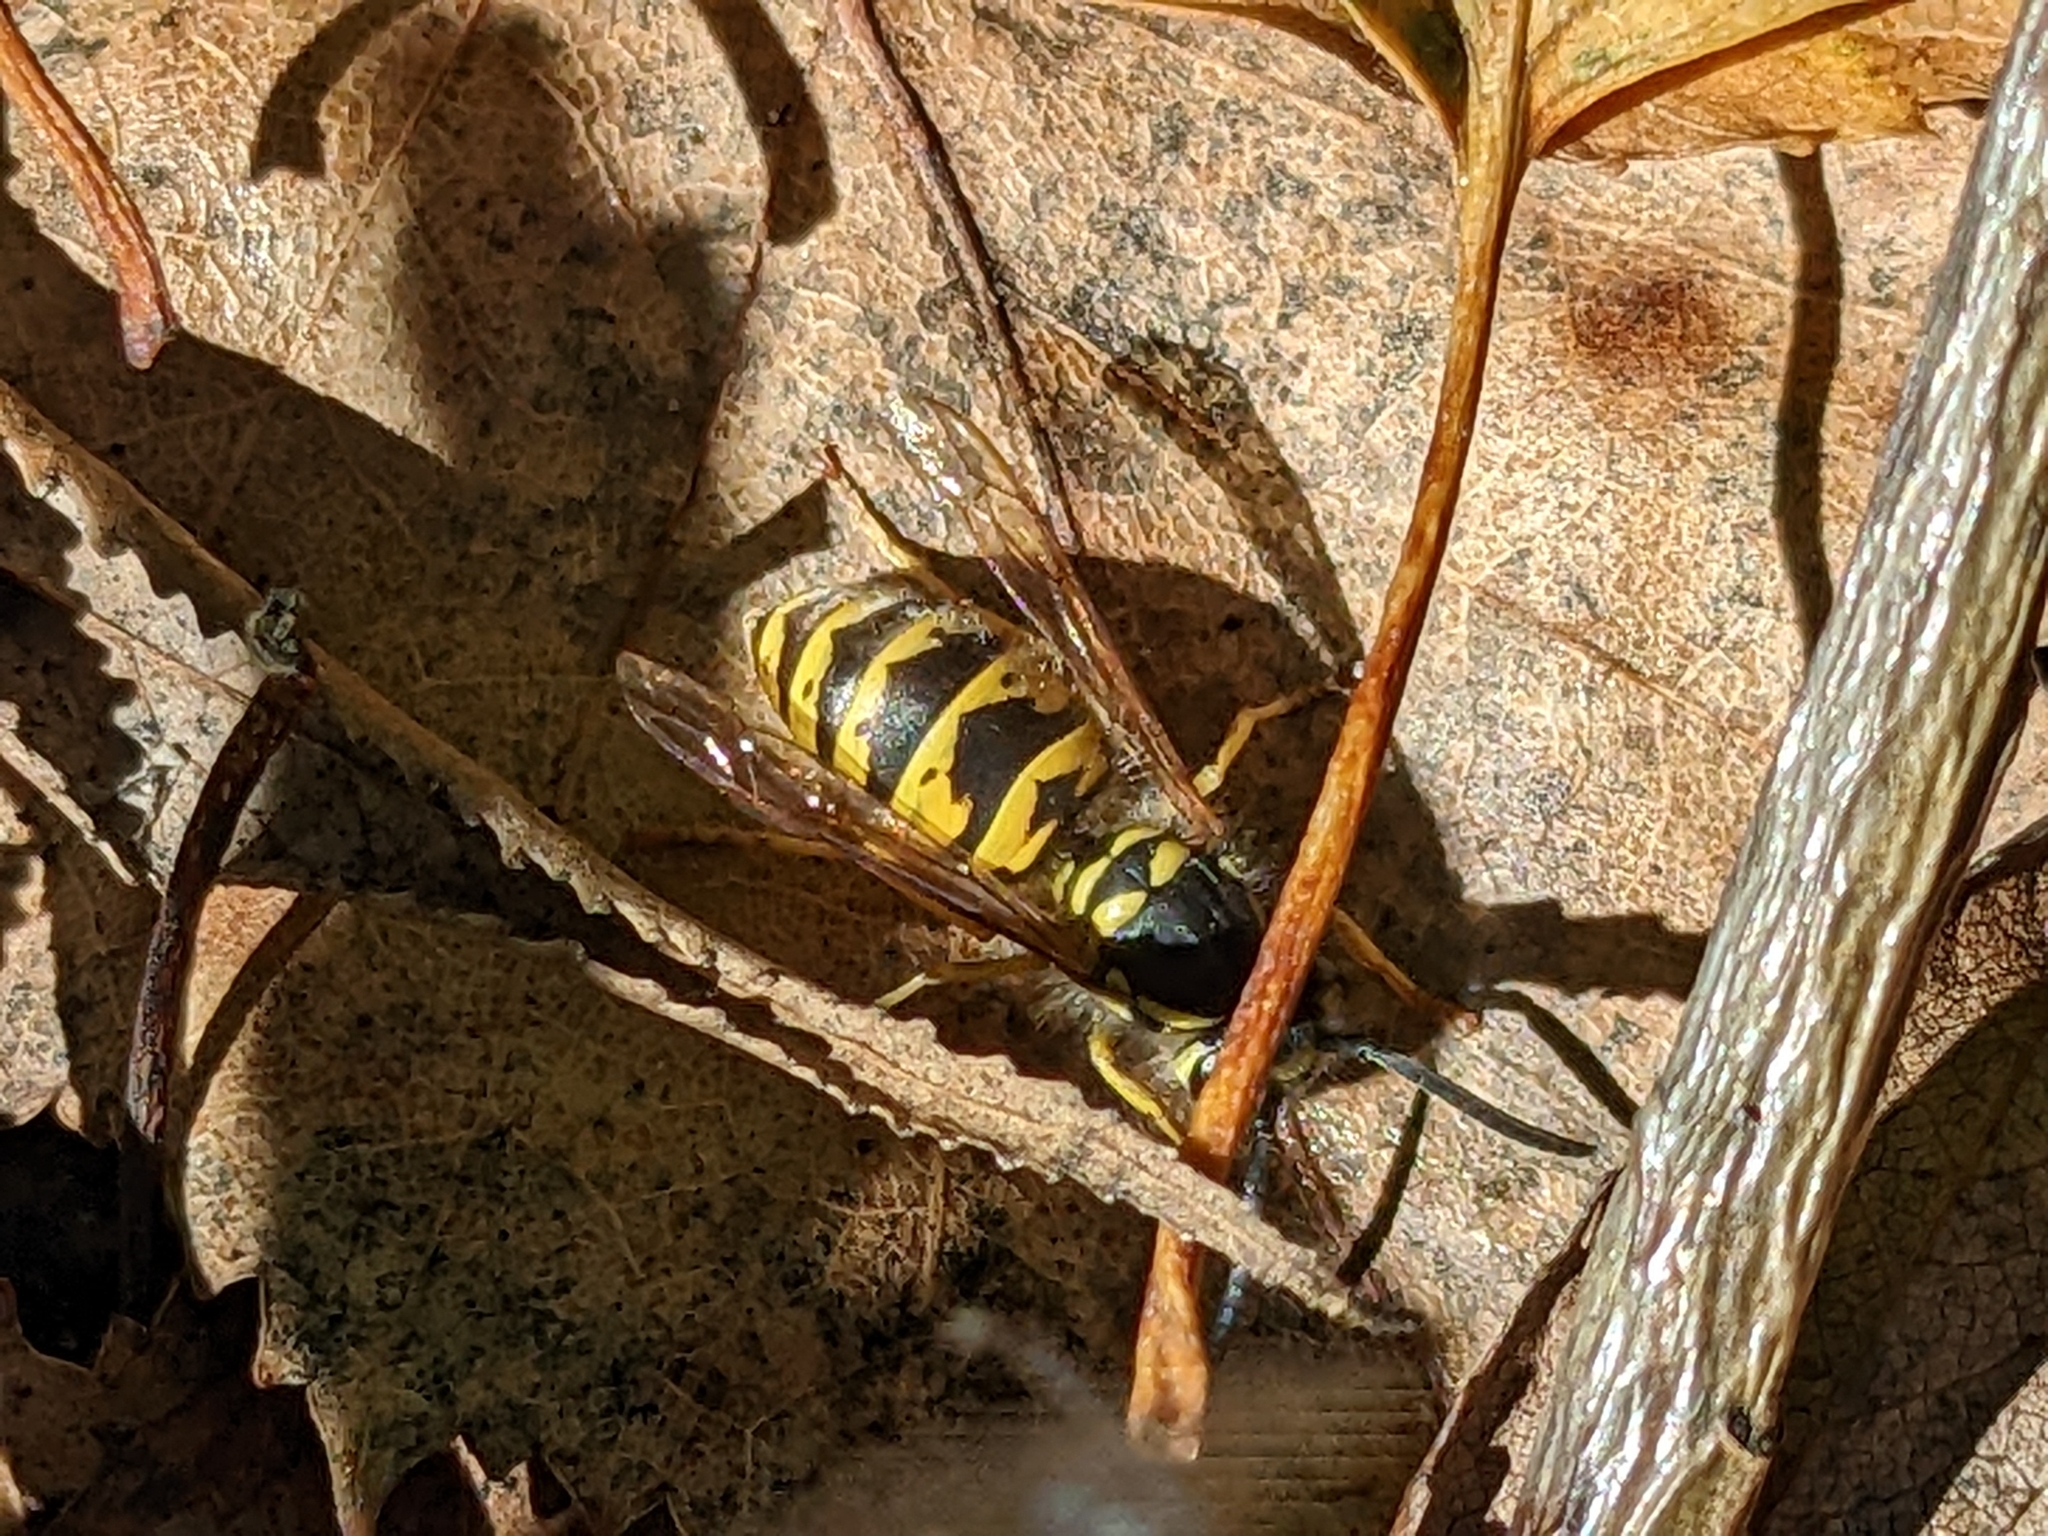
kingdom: Animalia
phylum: Arthropoda
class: Insecta
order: Hymenoptera
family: Vespidae
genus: Vespula
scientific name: Vespula vulgaris
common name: Common wasp
